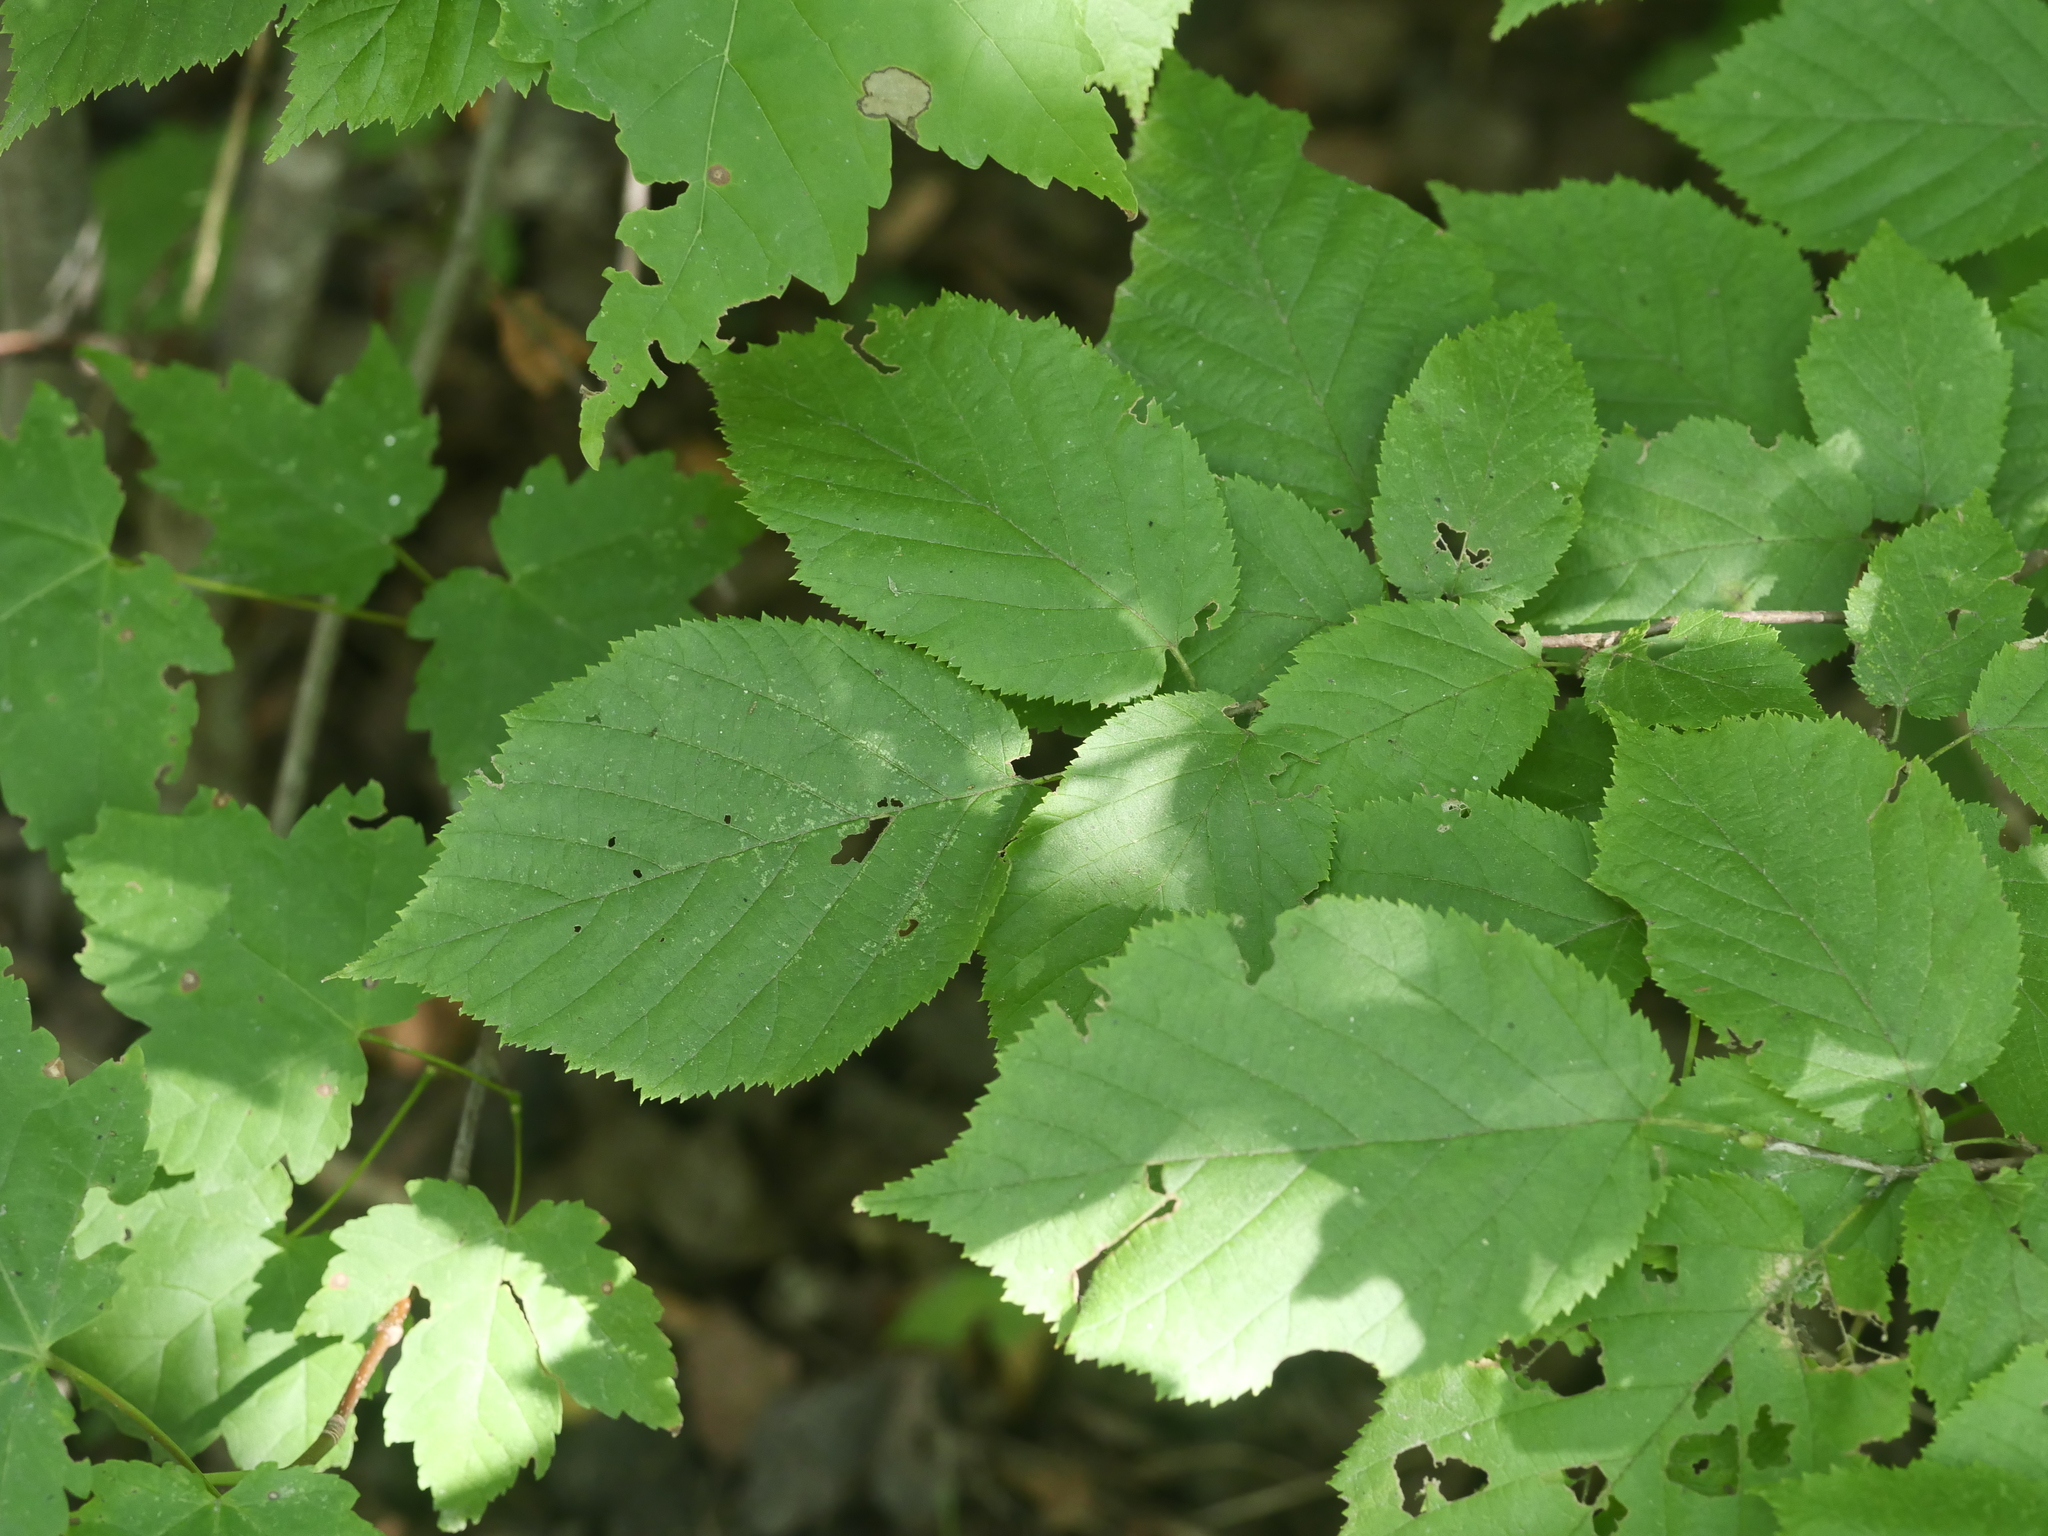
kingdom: Plantae
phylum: Tracheophyta
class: Magnoliopsida
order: Fagales
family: Betulaceae
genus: Corylus
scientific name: Corylus cornuta
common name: Beaked hazel
